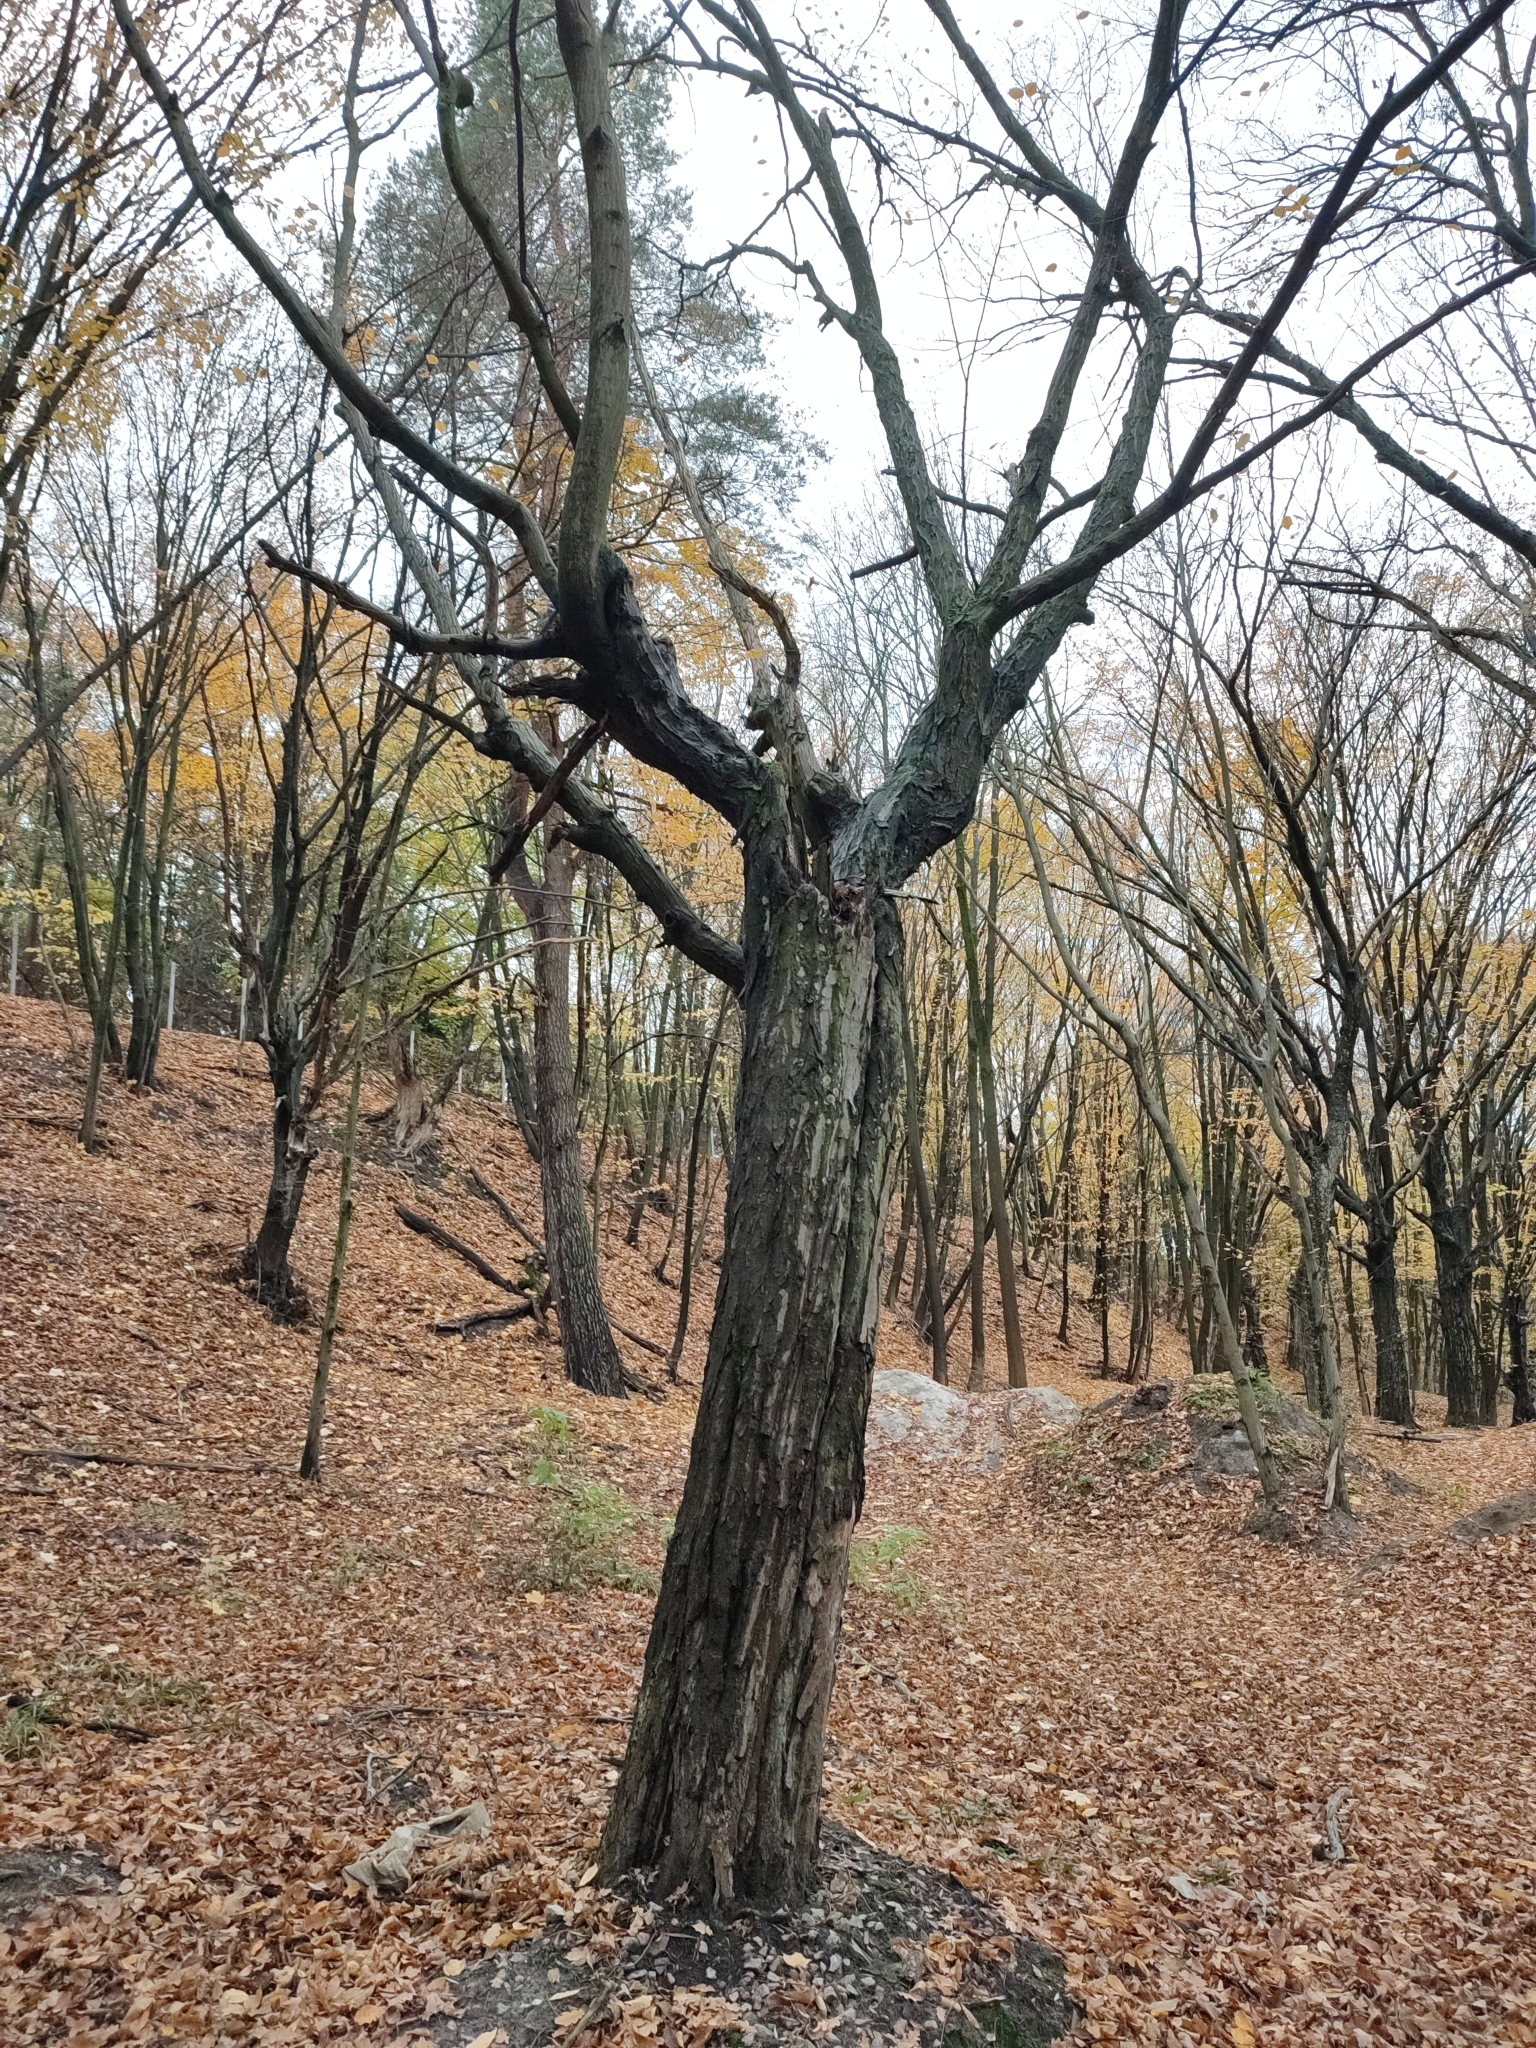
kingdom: Plantae
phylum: Tracheophyta
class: Magnoliopsida
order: Fagales
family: Betulaceae
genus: Carpinus
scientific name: Carpinus betulus
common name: Hornbeam
